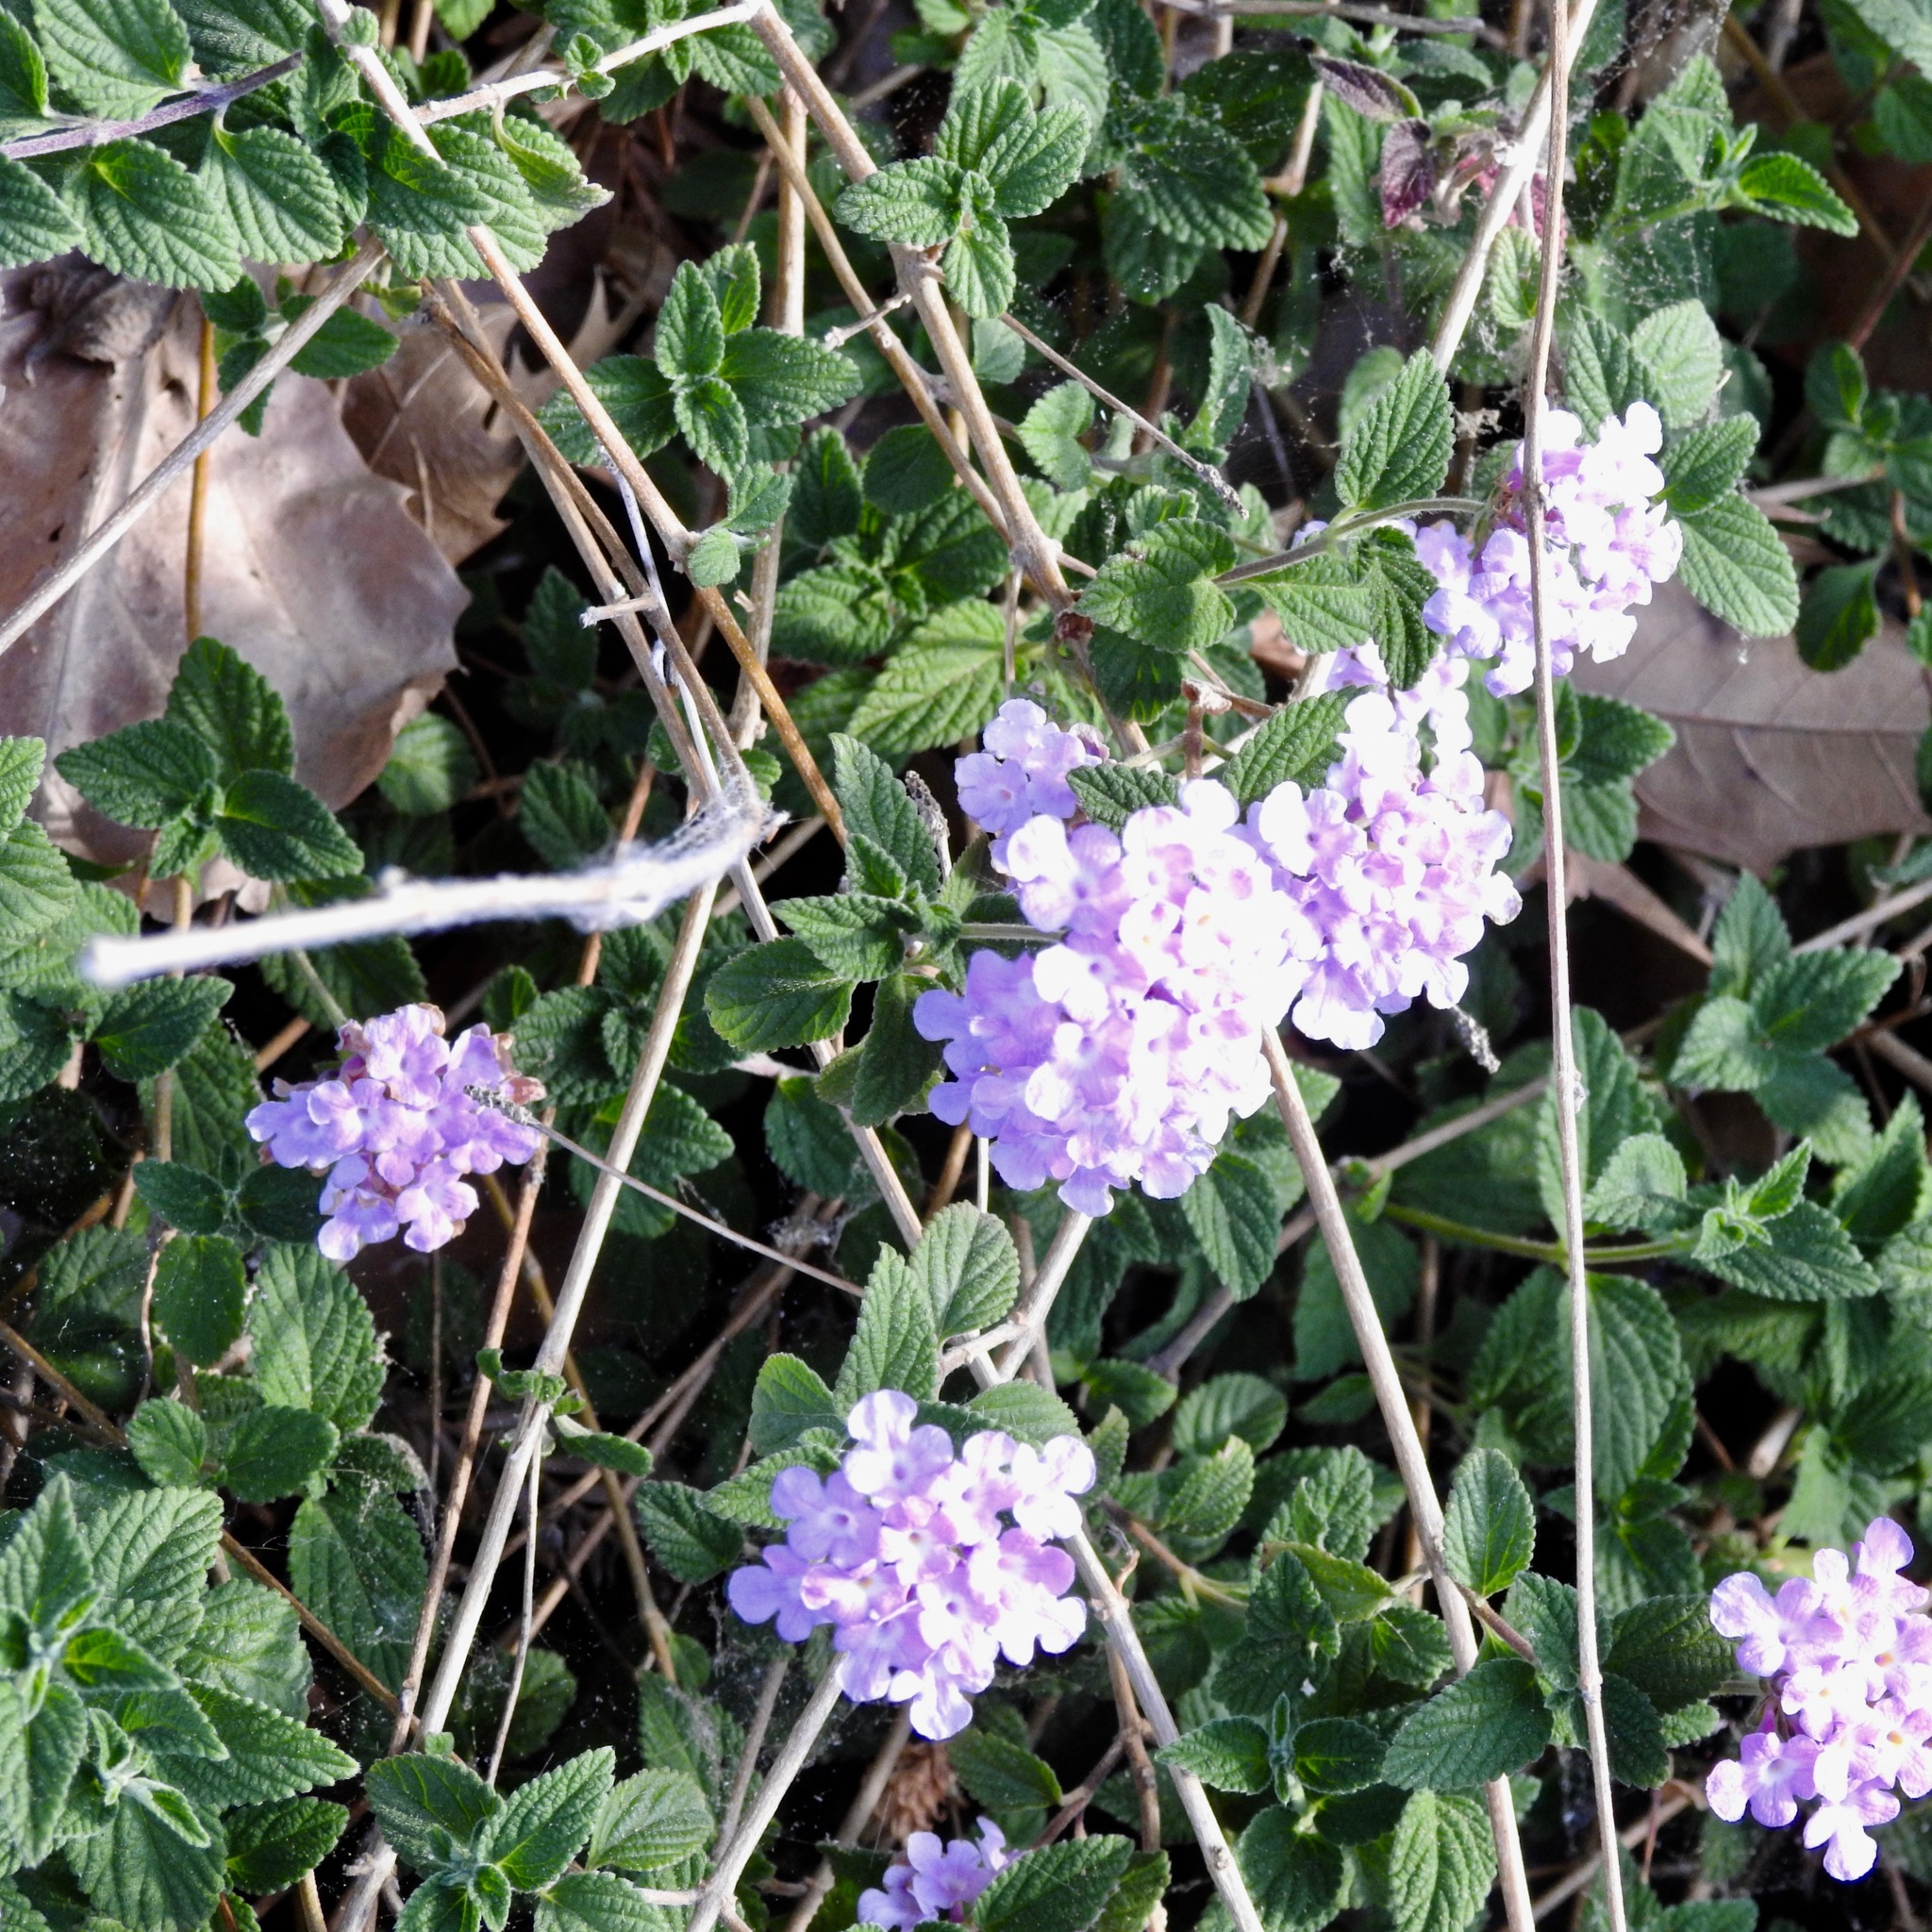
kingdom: Plantae
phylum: Tracheophyta
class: Magnoliopsida
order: Lamiales
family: Verbenaceae
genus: Lantana
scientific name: Lantana montevidensis
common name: Trailing shrubverbena
